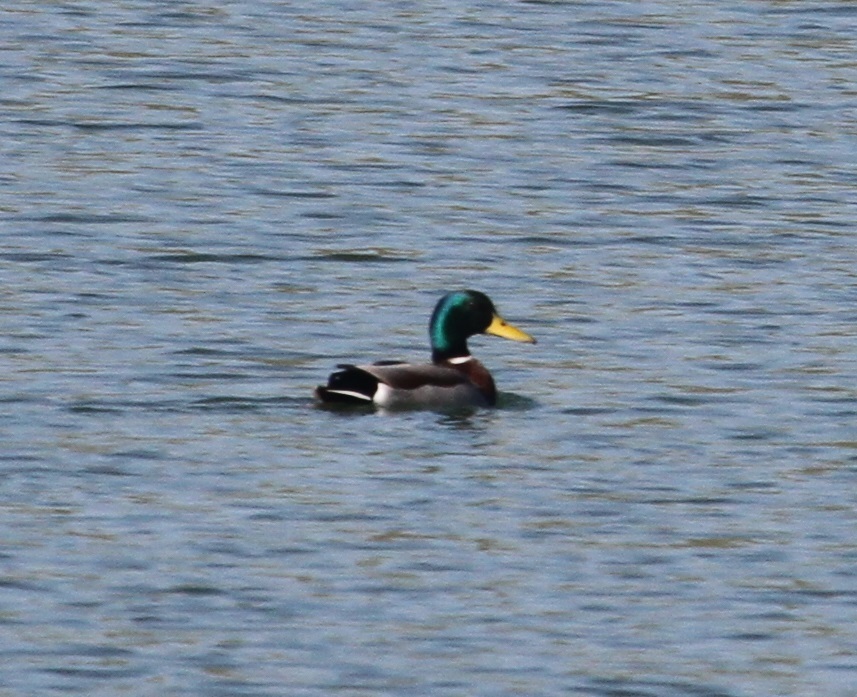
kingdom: Animalia
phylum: Chordata
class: Aves
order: Anseriformes
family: Anatidae
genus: Anas
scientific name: Anas platyrhynchos
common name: Mallard
